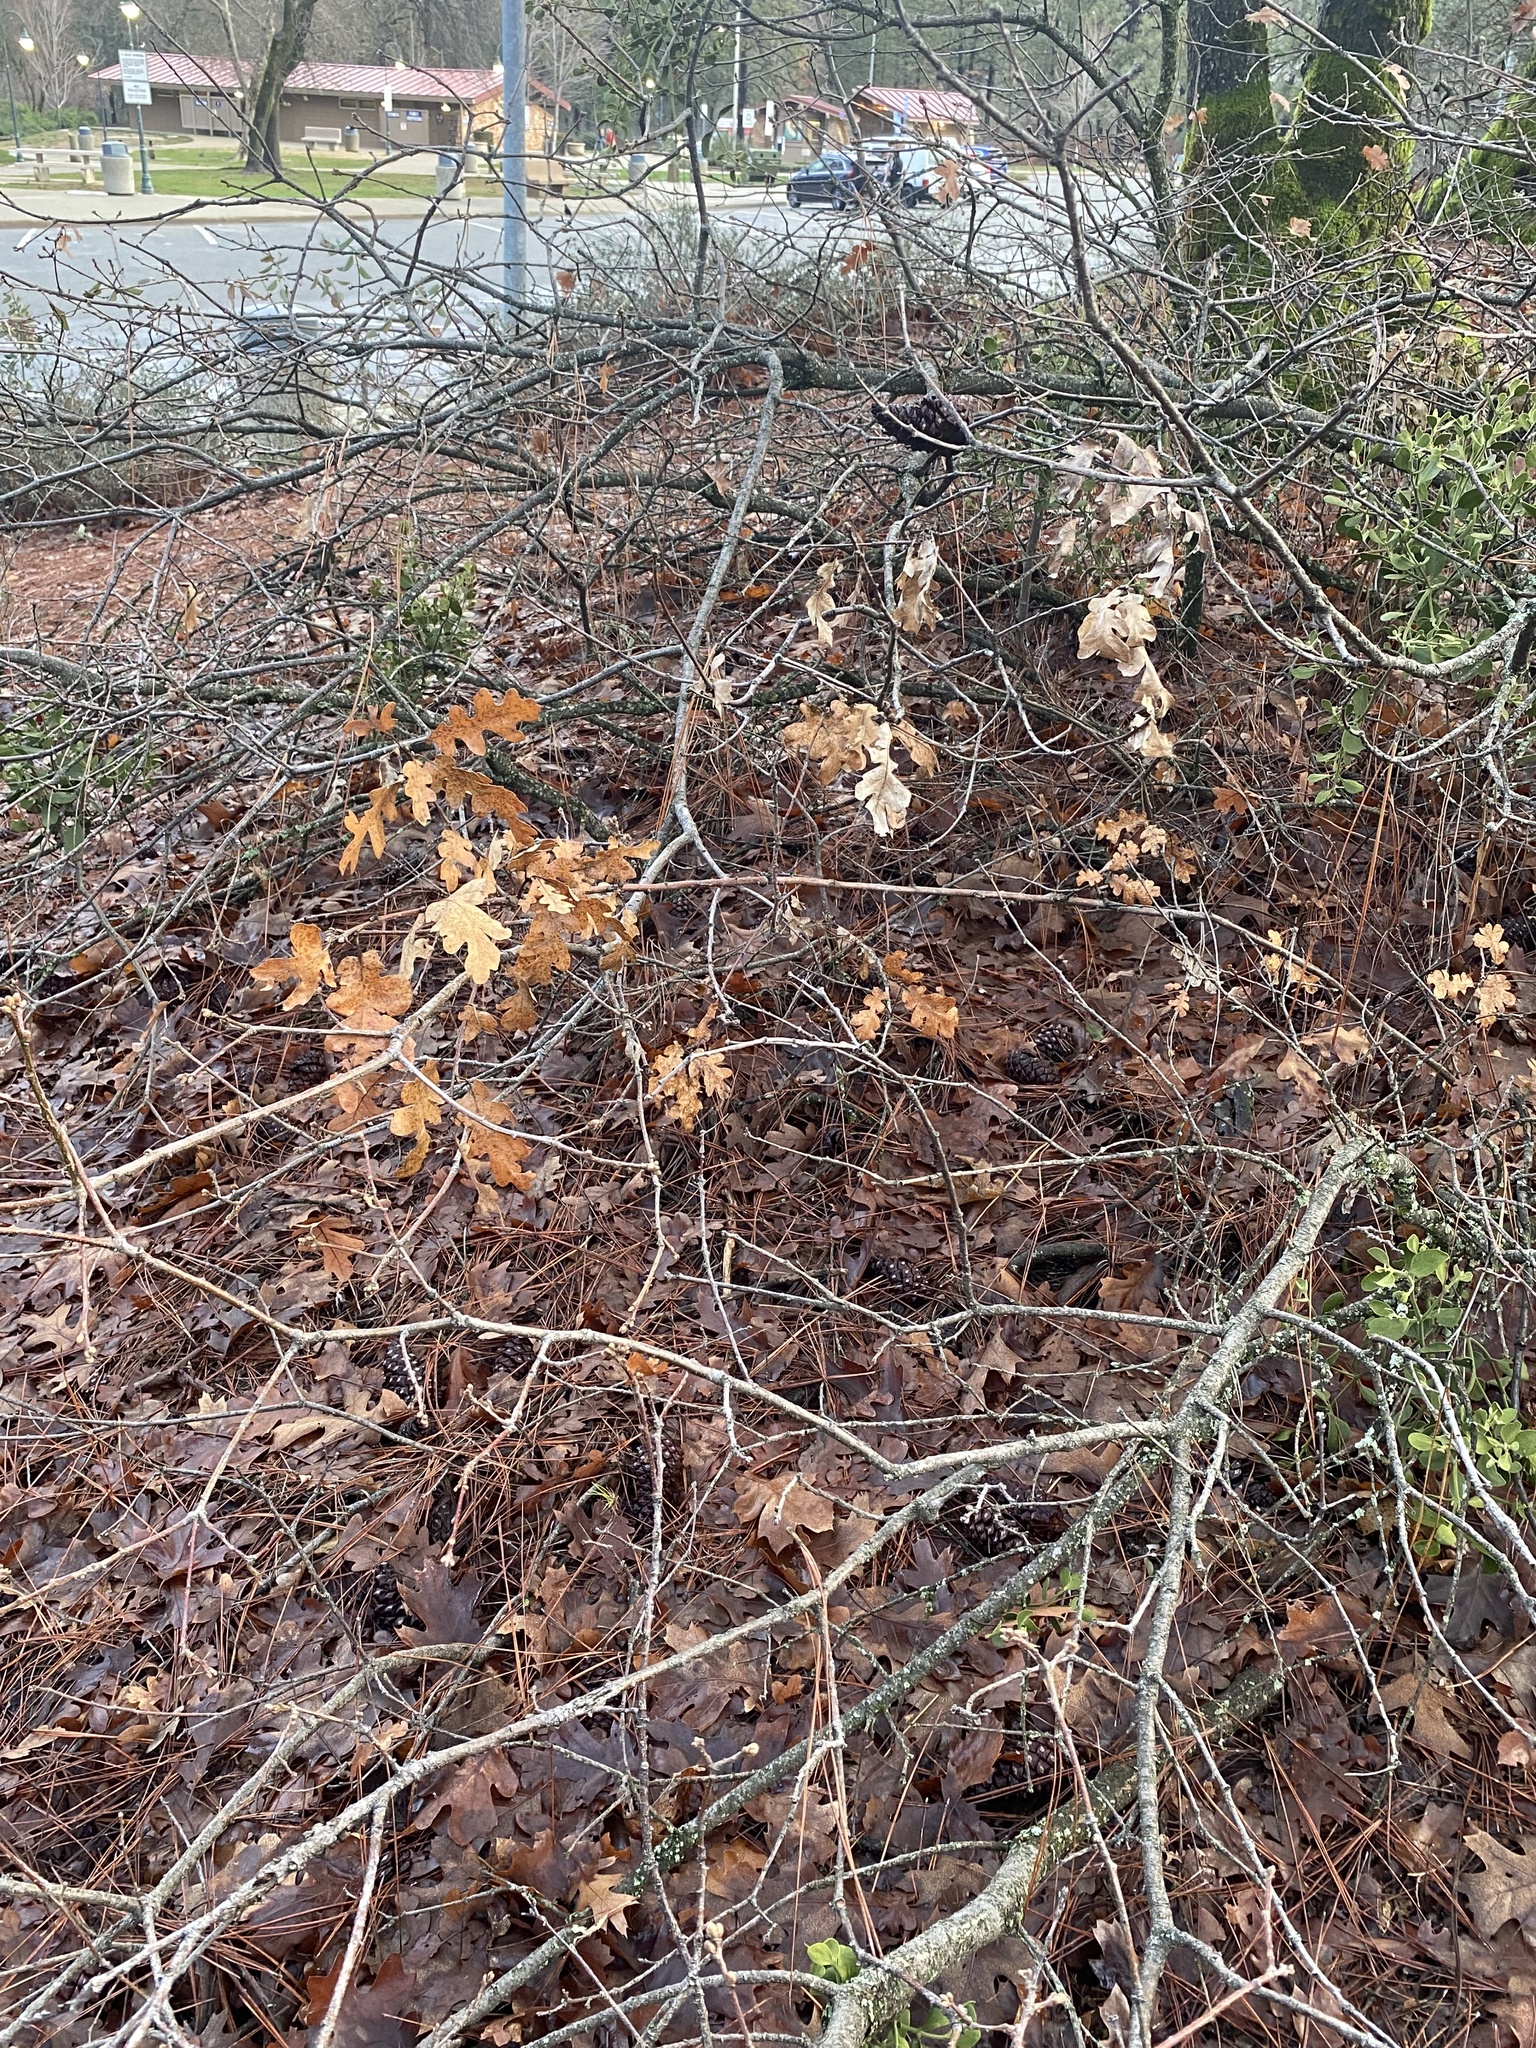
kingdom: Plantae
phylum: Tracheophyta
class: Magnoliopsida
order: Fagales
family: Fagaceae
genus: Quercus
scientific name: Quercus garryana
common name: Garry oak
